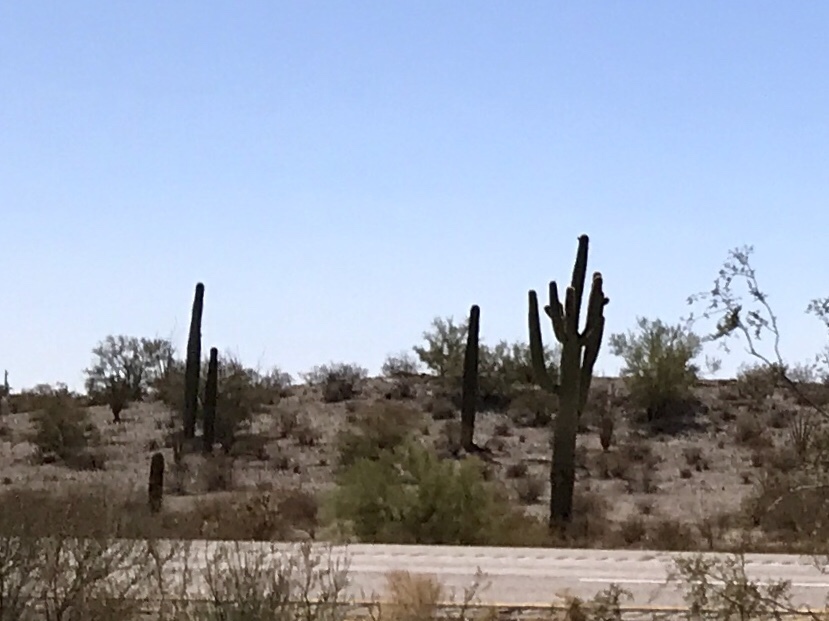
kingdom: Plantae
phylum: Tracheophyta
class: Magnoliopsida
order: Caryophyllales
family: Cactaceae
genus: Carnegiea
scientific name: Carnegiea gigantea
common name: Saguaro
